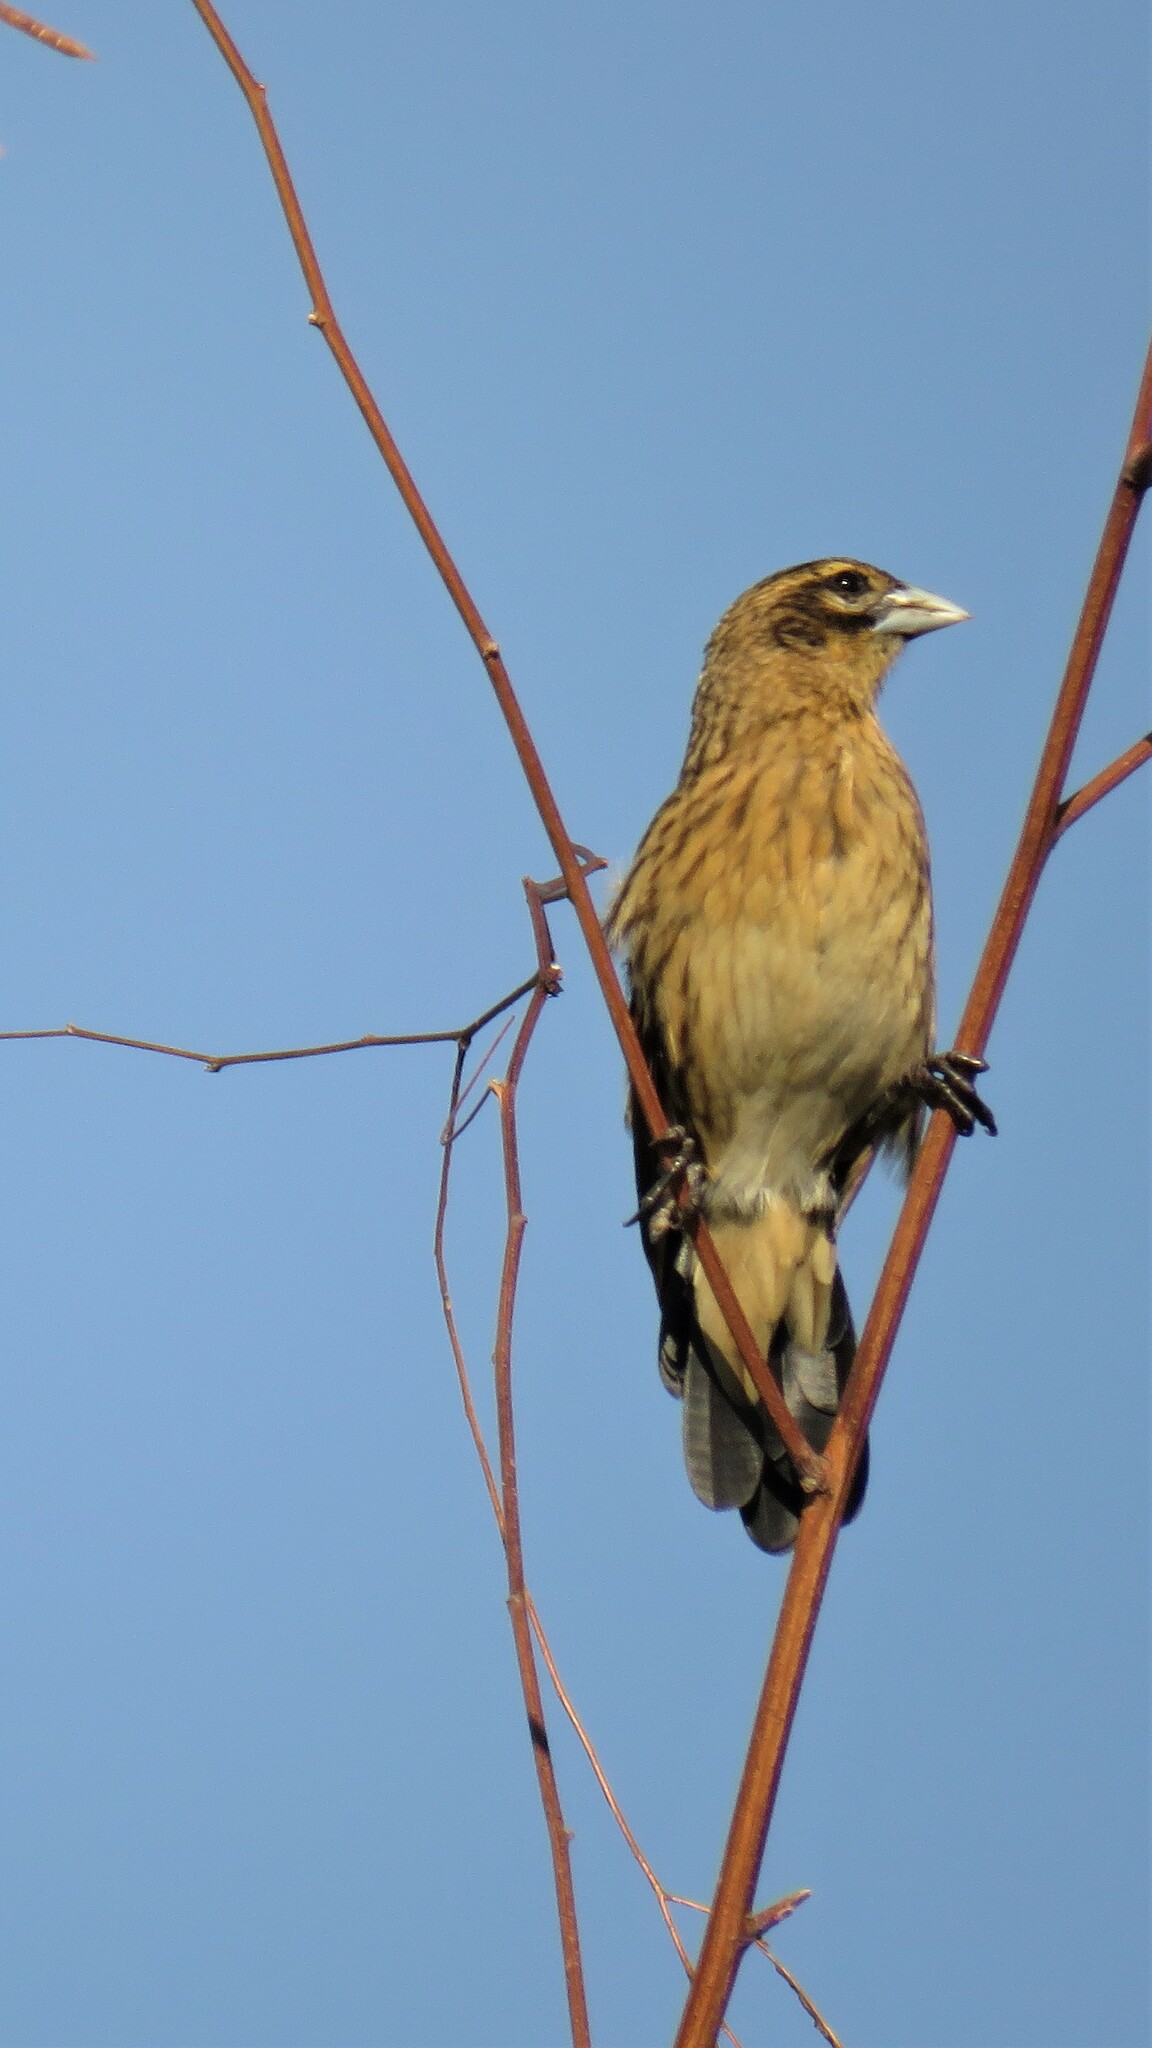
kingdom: Animalia
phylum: Chordata
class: Aves
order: Passeriformes
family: Ploceidae
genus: Euplectes
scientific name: Euplectes axillaris
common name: Fan-tailed widowbird
